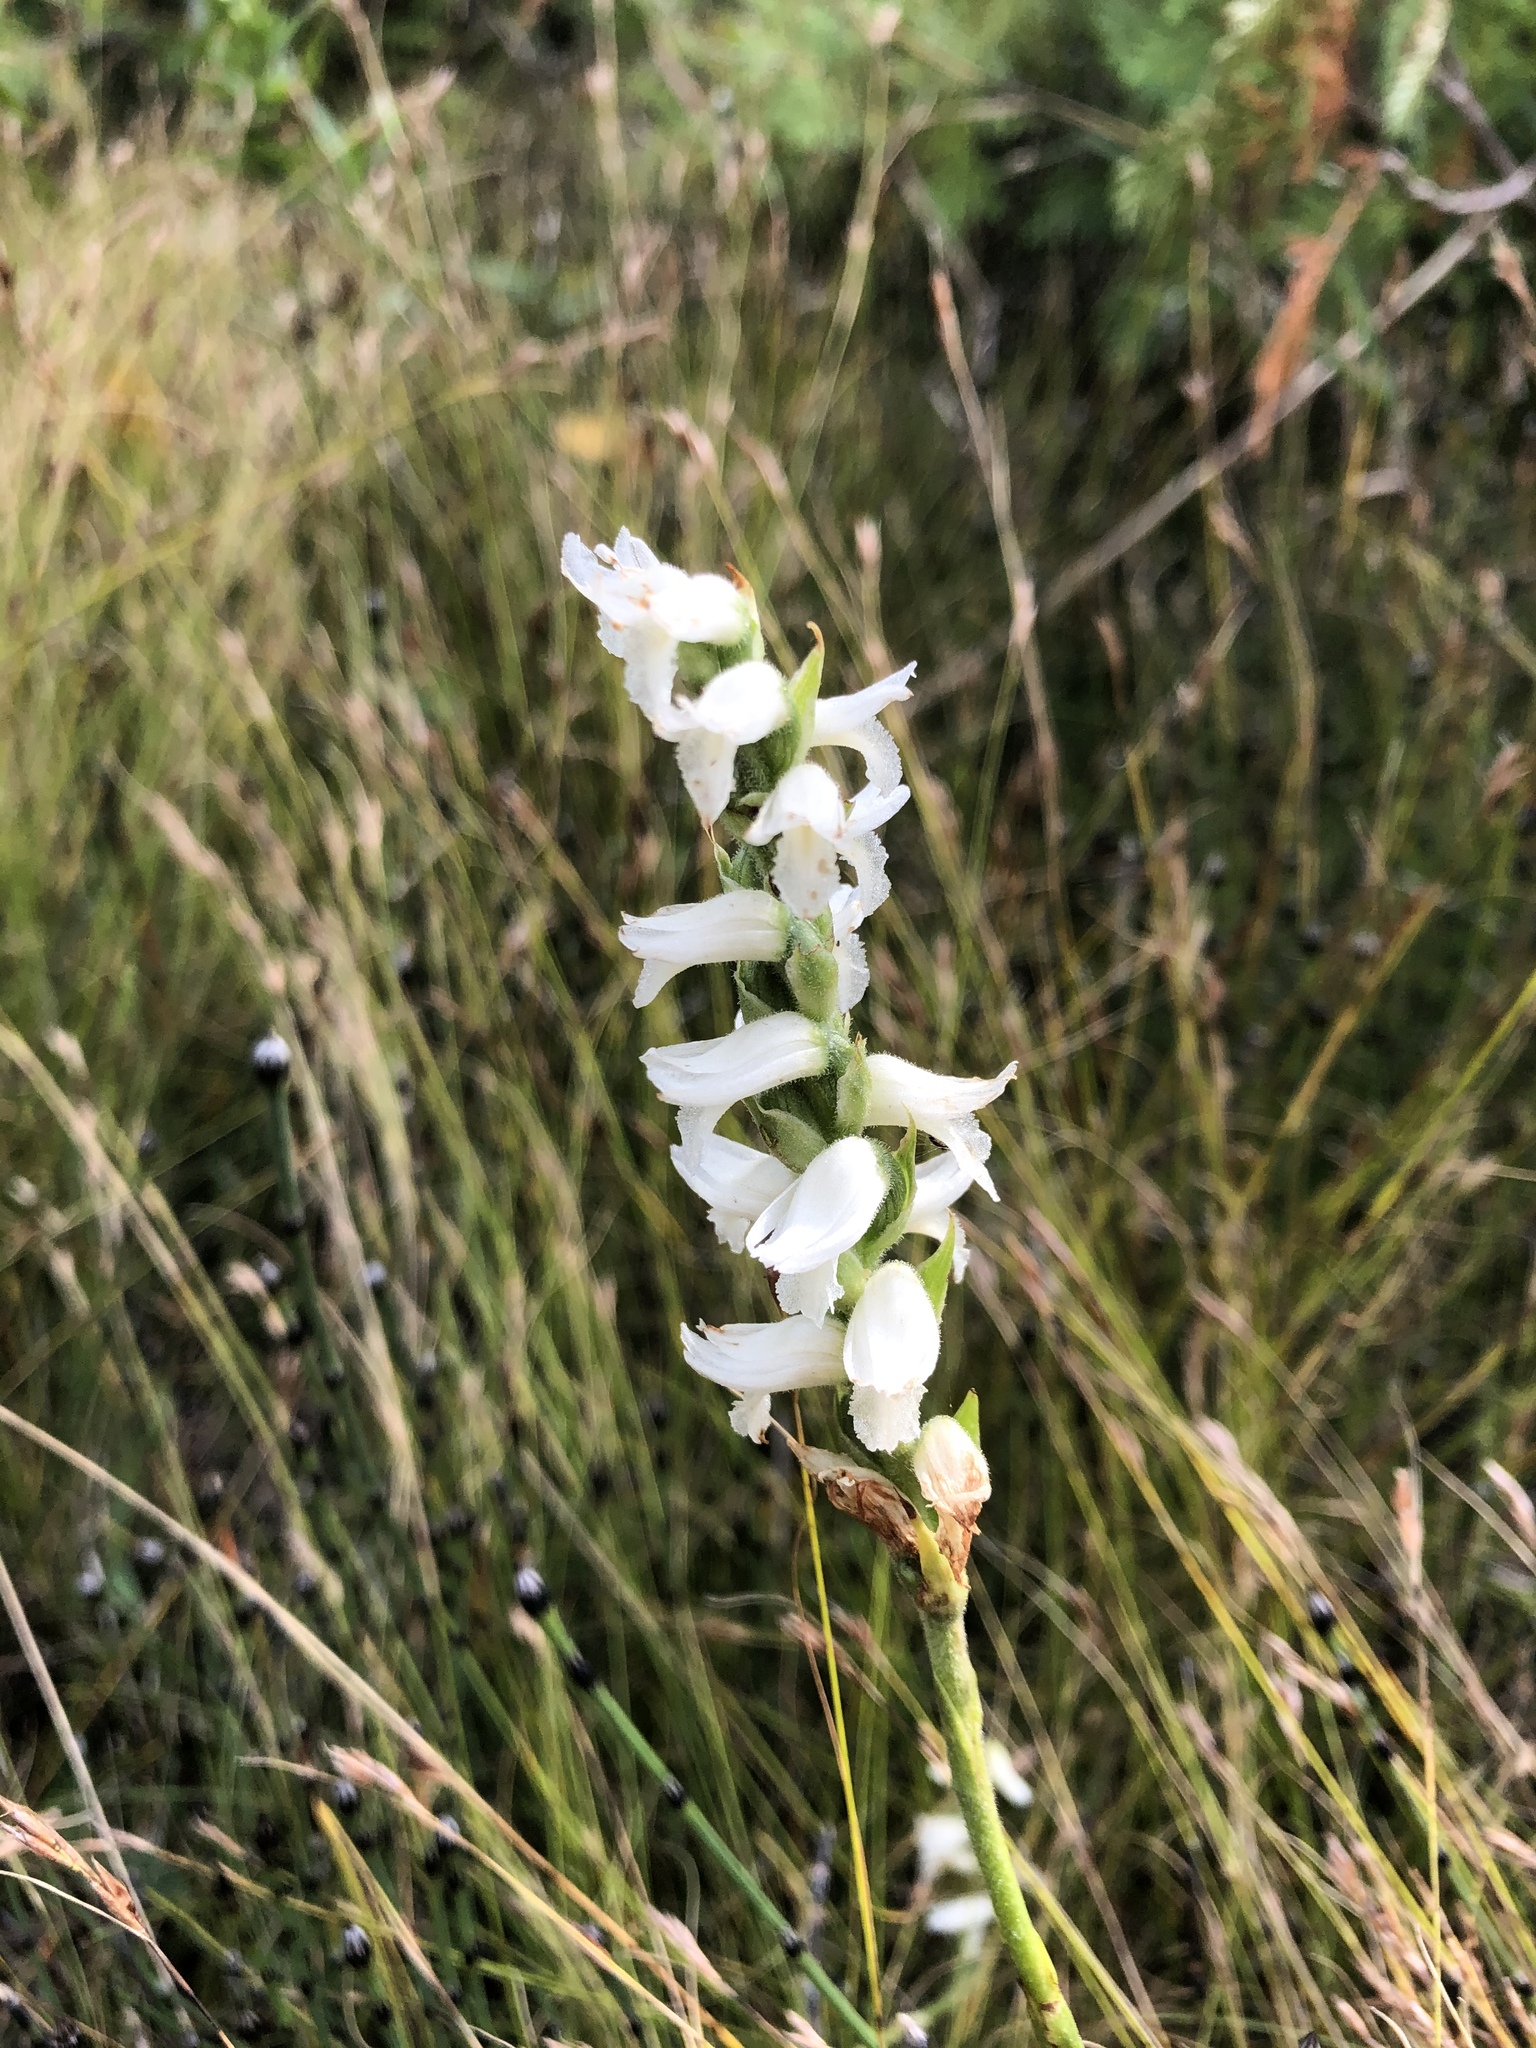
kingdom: Plantae
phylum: Tracheophyta
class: Liliopsida
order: Asparagales
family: Orchidaceae
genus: Spiranthes
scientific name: Spiranthes incurva
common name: Sphinx ladies'-tresses
